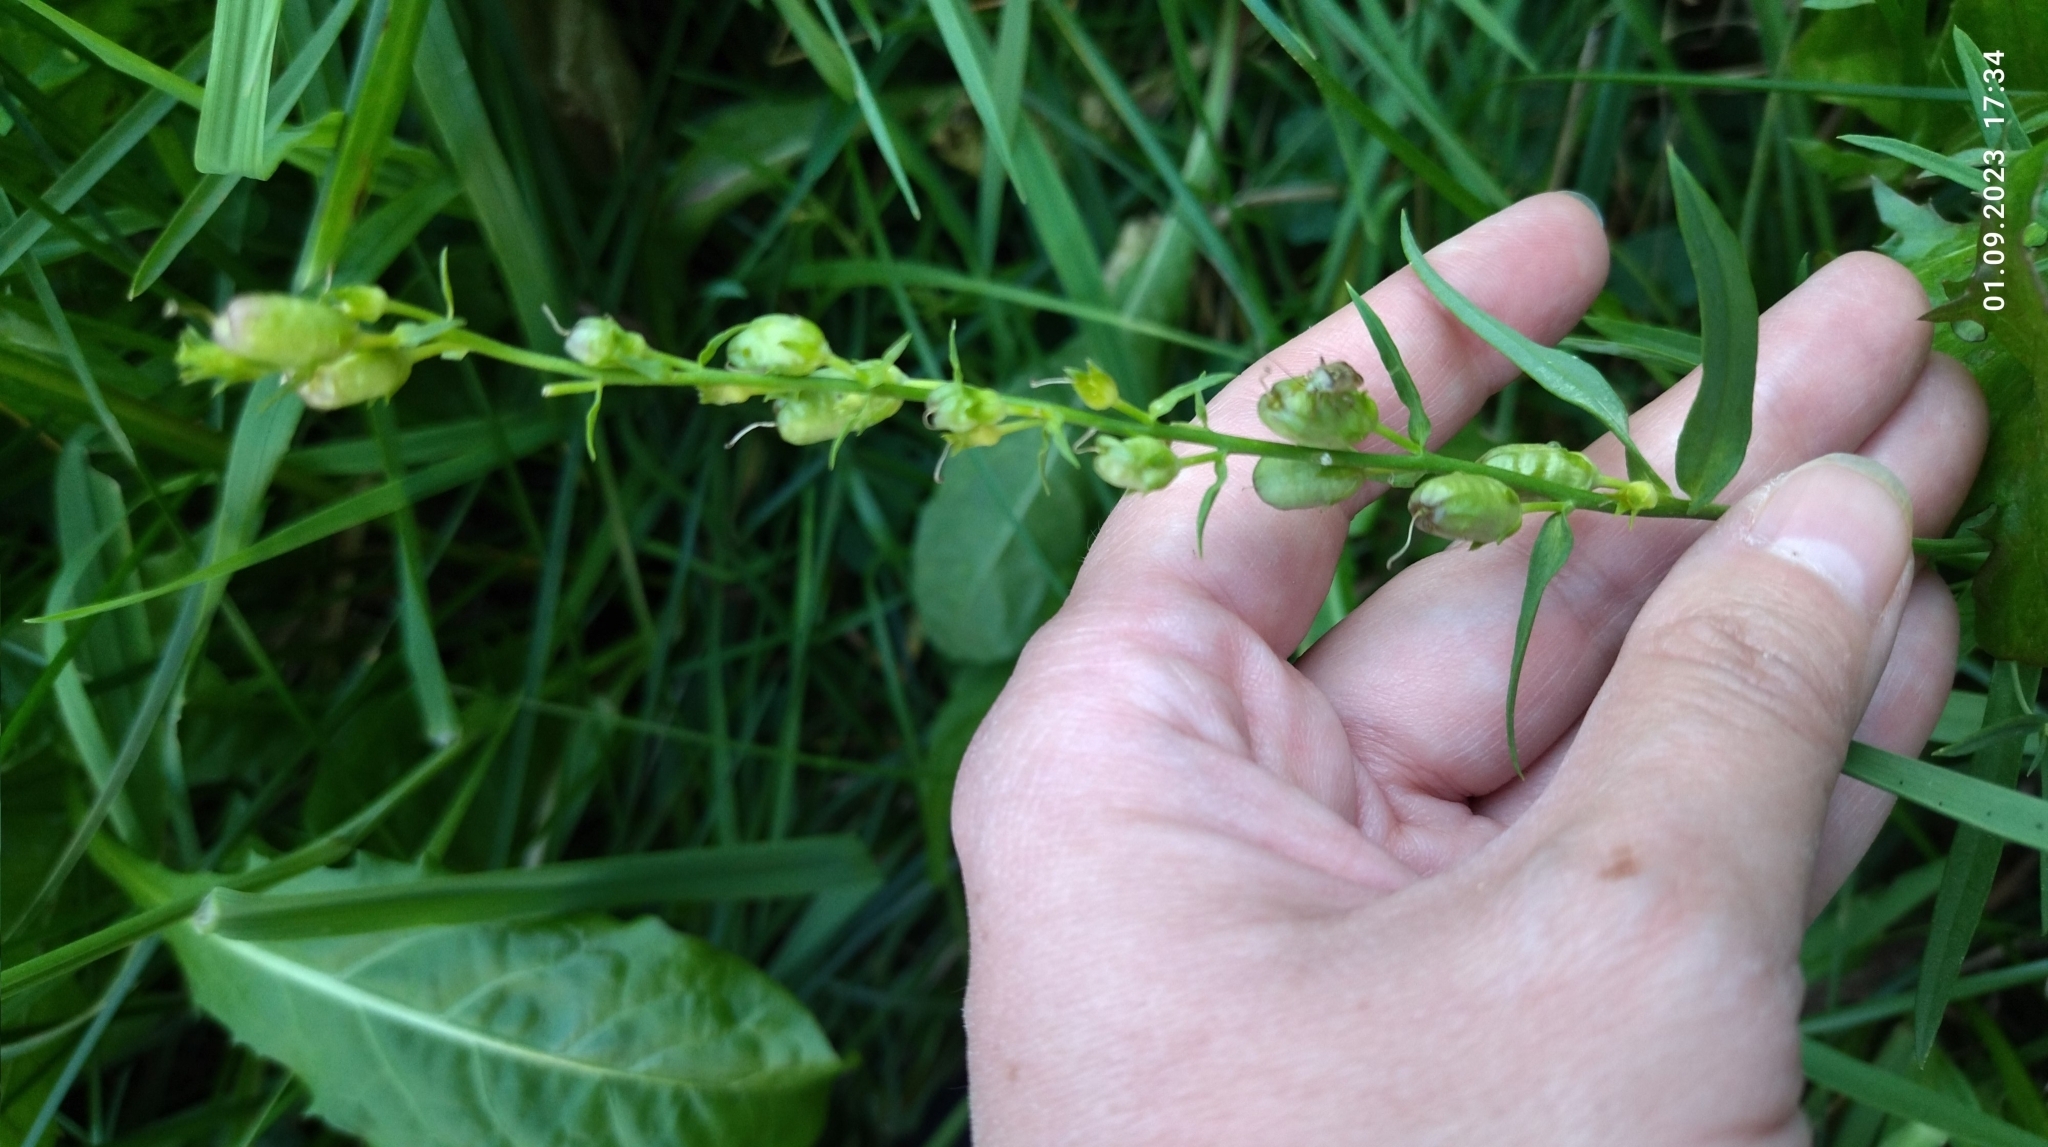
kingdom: Plantae
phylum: Tracheophyta
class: Magnoliopsida
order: Lamiales
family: Plantaginaceae
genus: Linaria
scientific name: Linaria vulgaris
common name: Butter and eggs
